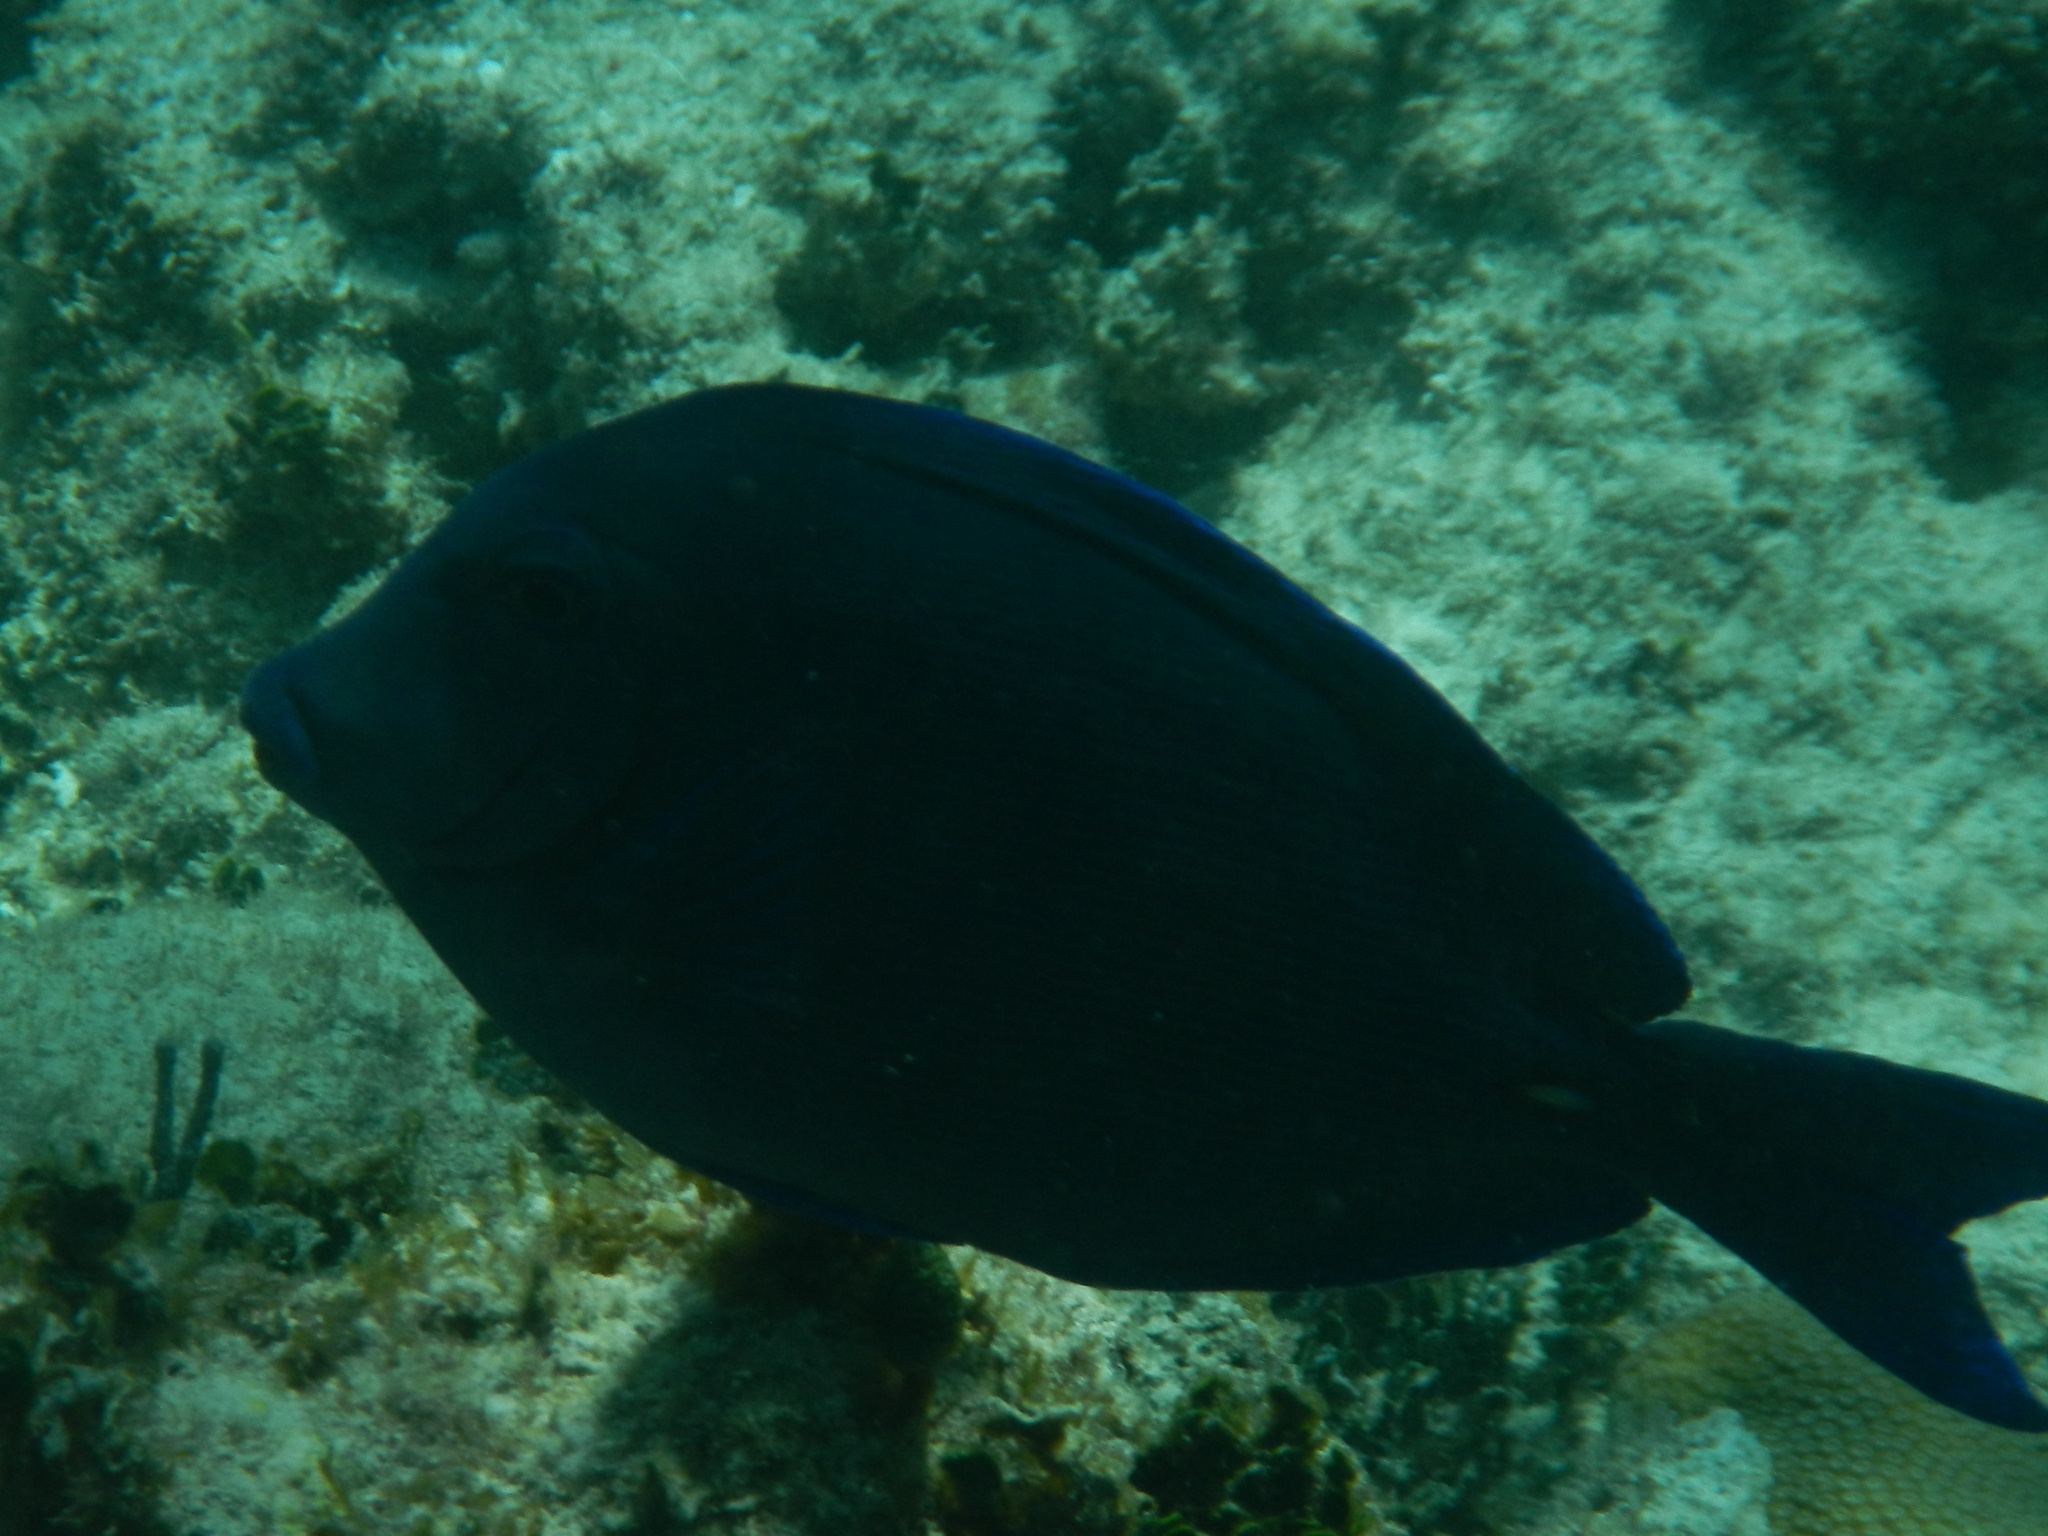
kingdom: Animalia
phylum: Chordata
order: Perciformes
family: Acanthuridae
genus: Acanthurus
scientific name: Acanthurus coeruleus
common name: Blue tang
